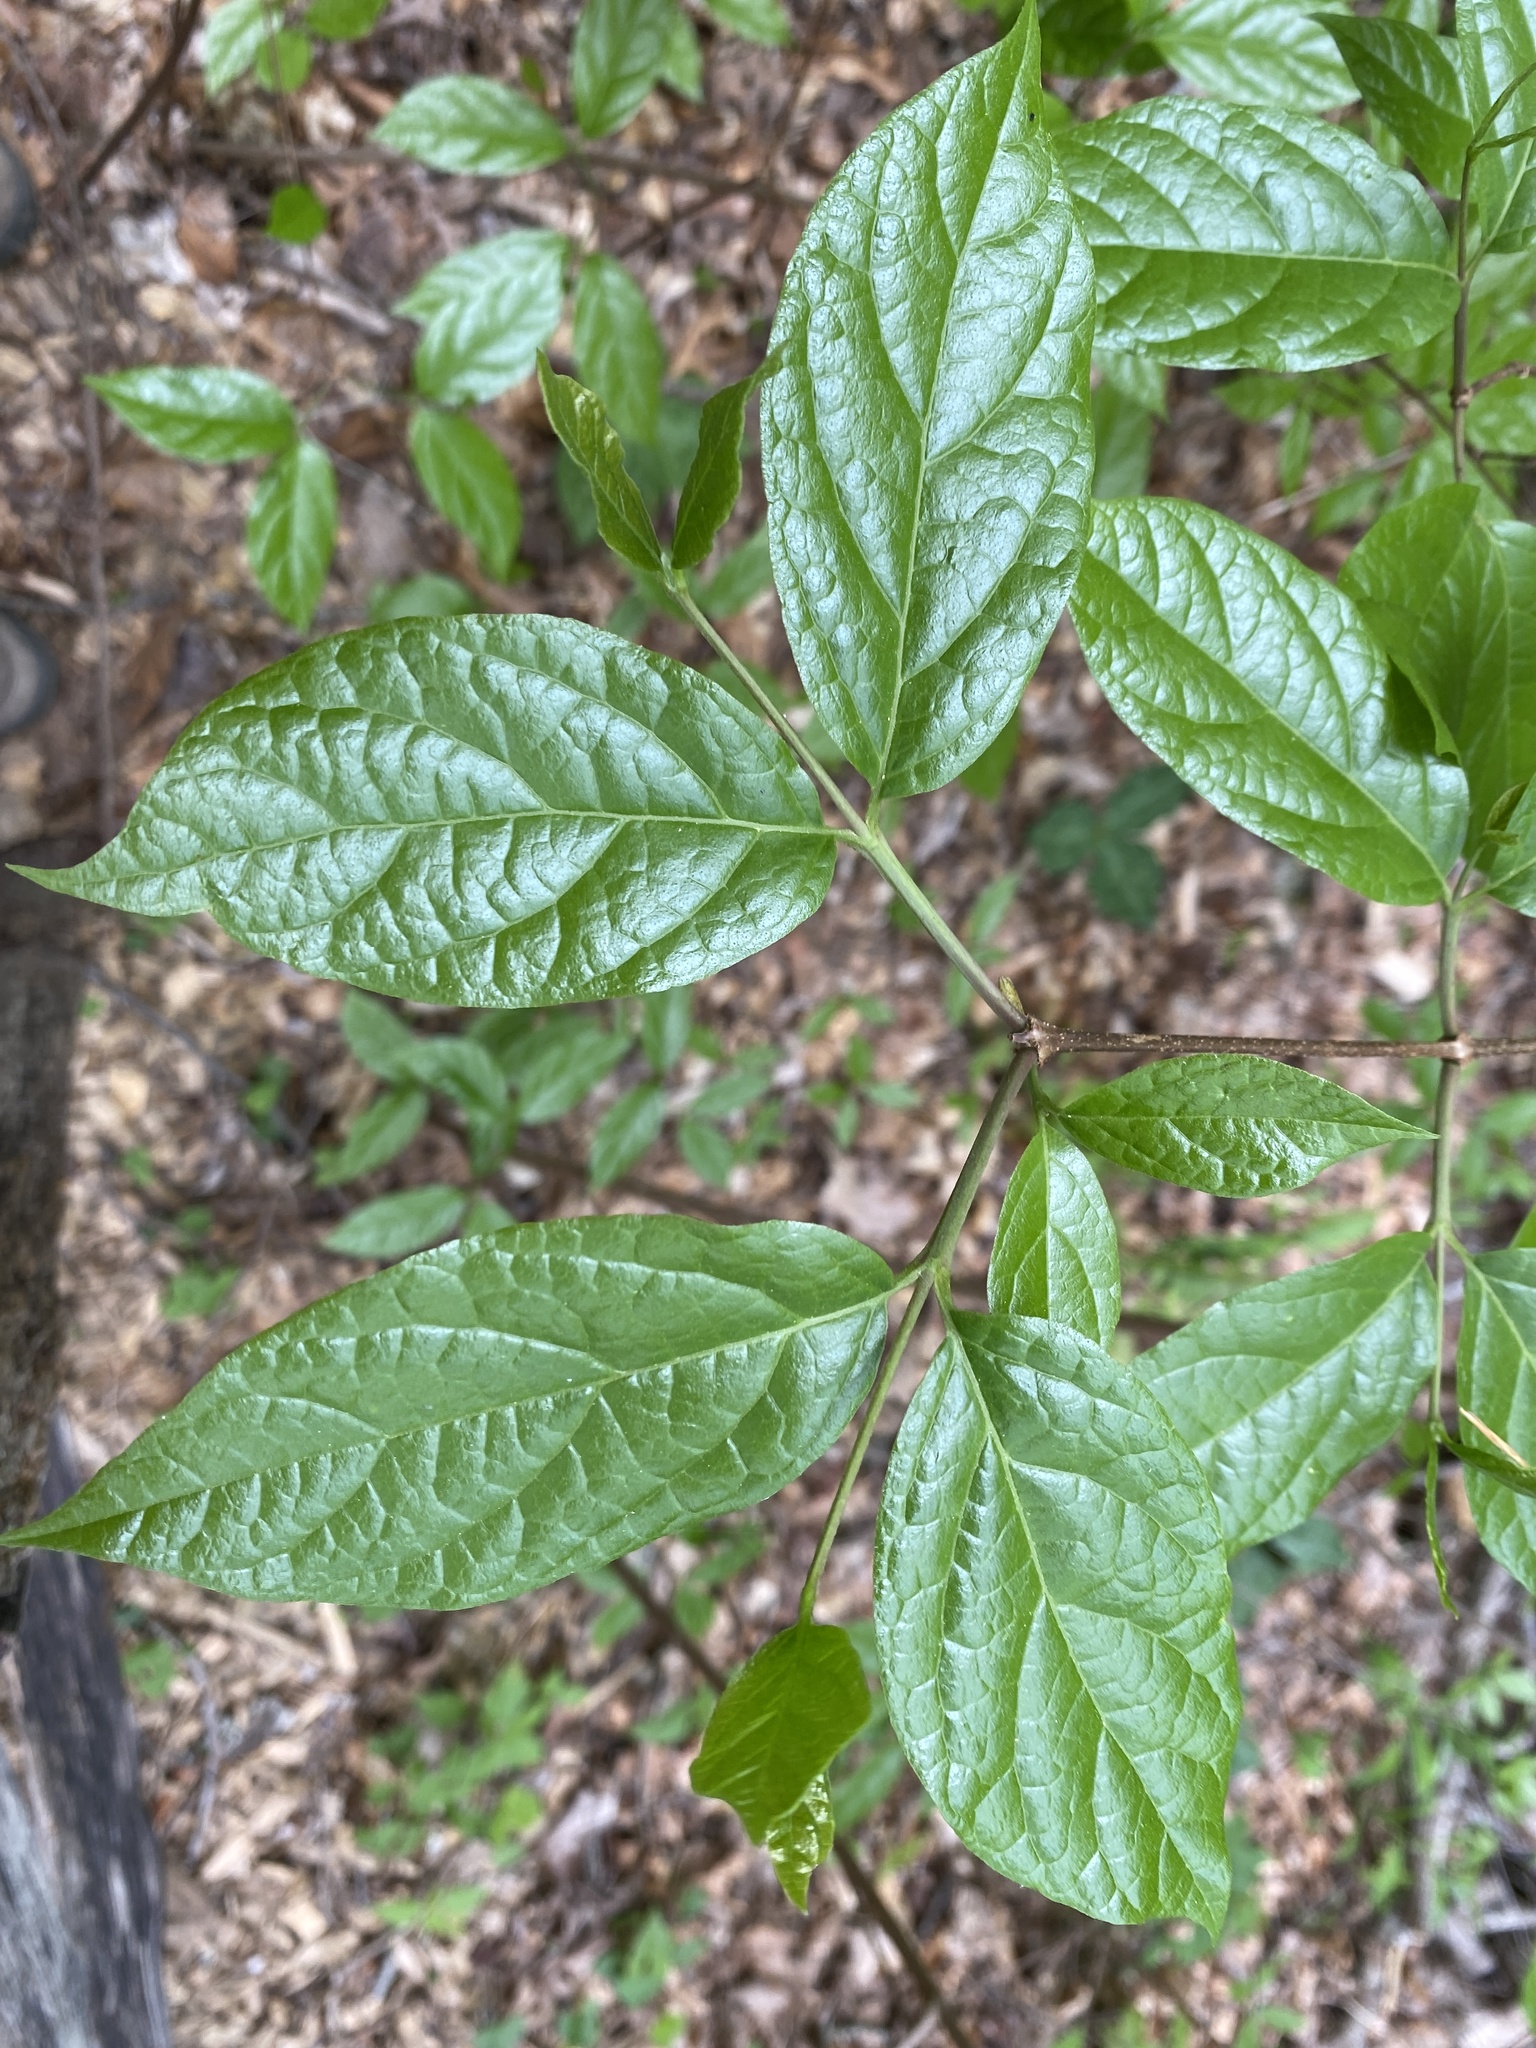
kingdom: Plantae
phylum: Tracheophyta
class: Magnoliopsida
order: Laurales
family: Calycanthaceae
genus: Calycanthus
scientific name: Calycanthus floridus
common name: Carolina-allspice
